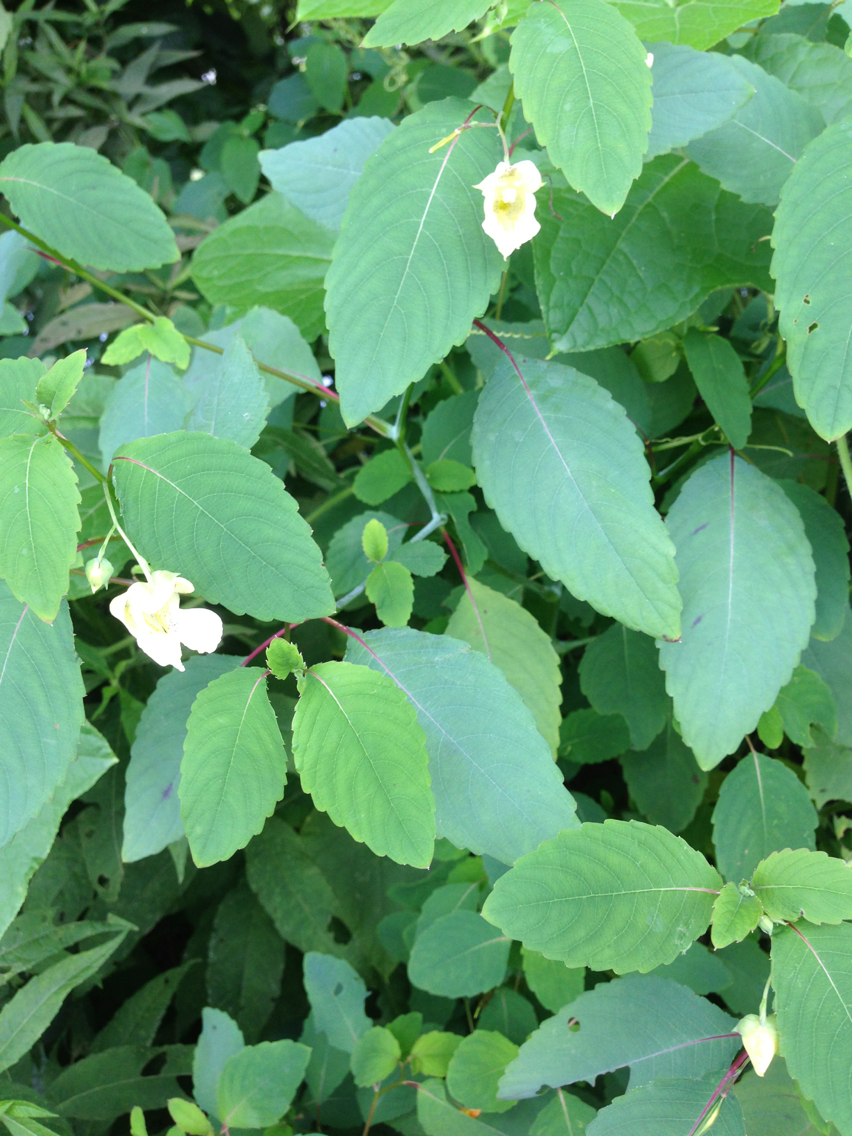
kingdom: Plantae
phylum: Tracheophyta
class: Magnoliopsida
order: Ericales
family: Balsaminaceae
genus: Impatiens
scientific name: Impatiens pallida
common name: Pale snapweed
